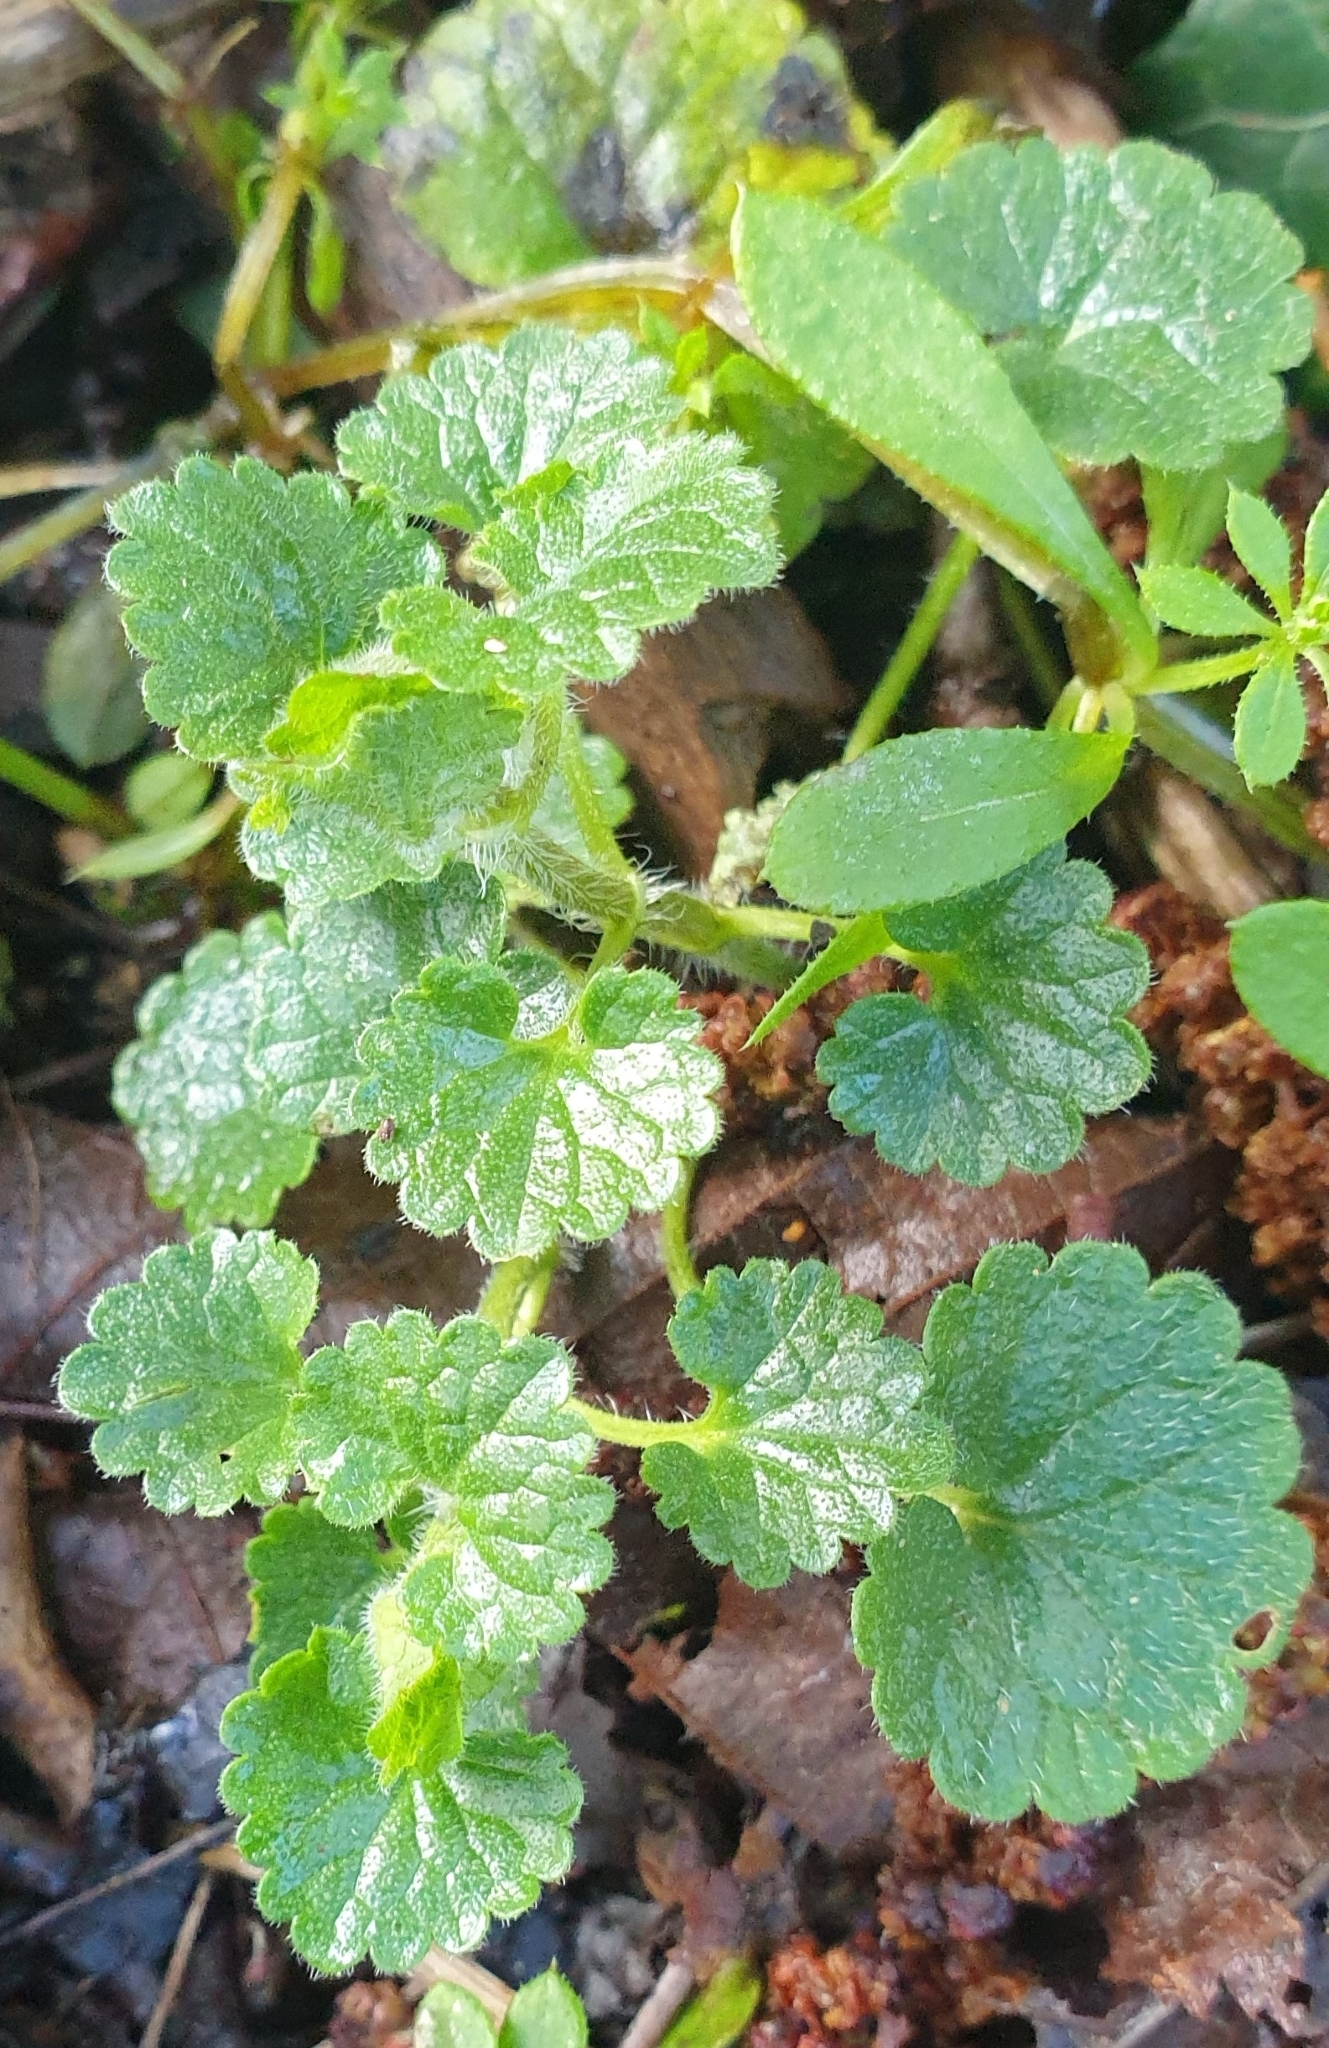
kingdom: Plantae
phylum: Tracheophyta
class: Magnoliopsida
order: Lamiales
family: Lamiaceae
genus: Glechoma
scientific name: Glechoma hederacea
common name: Ground ivy
